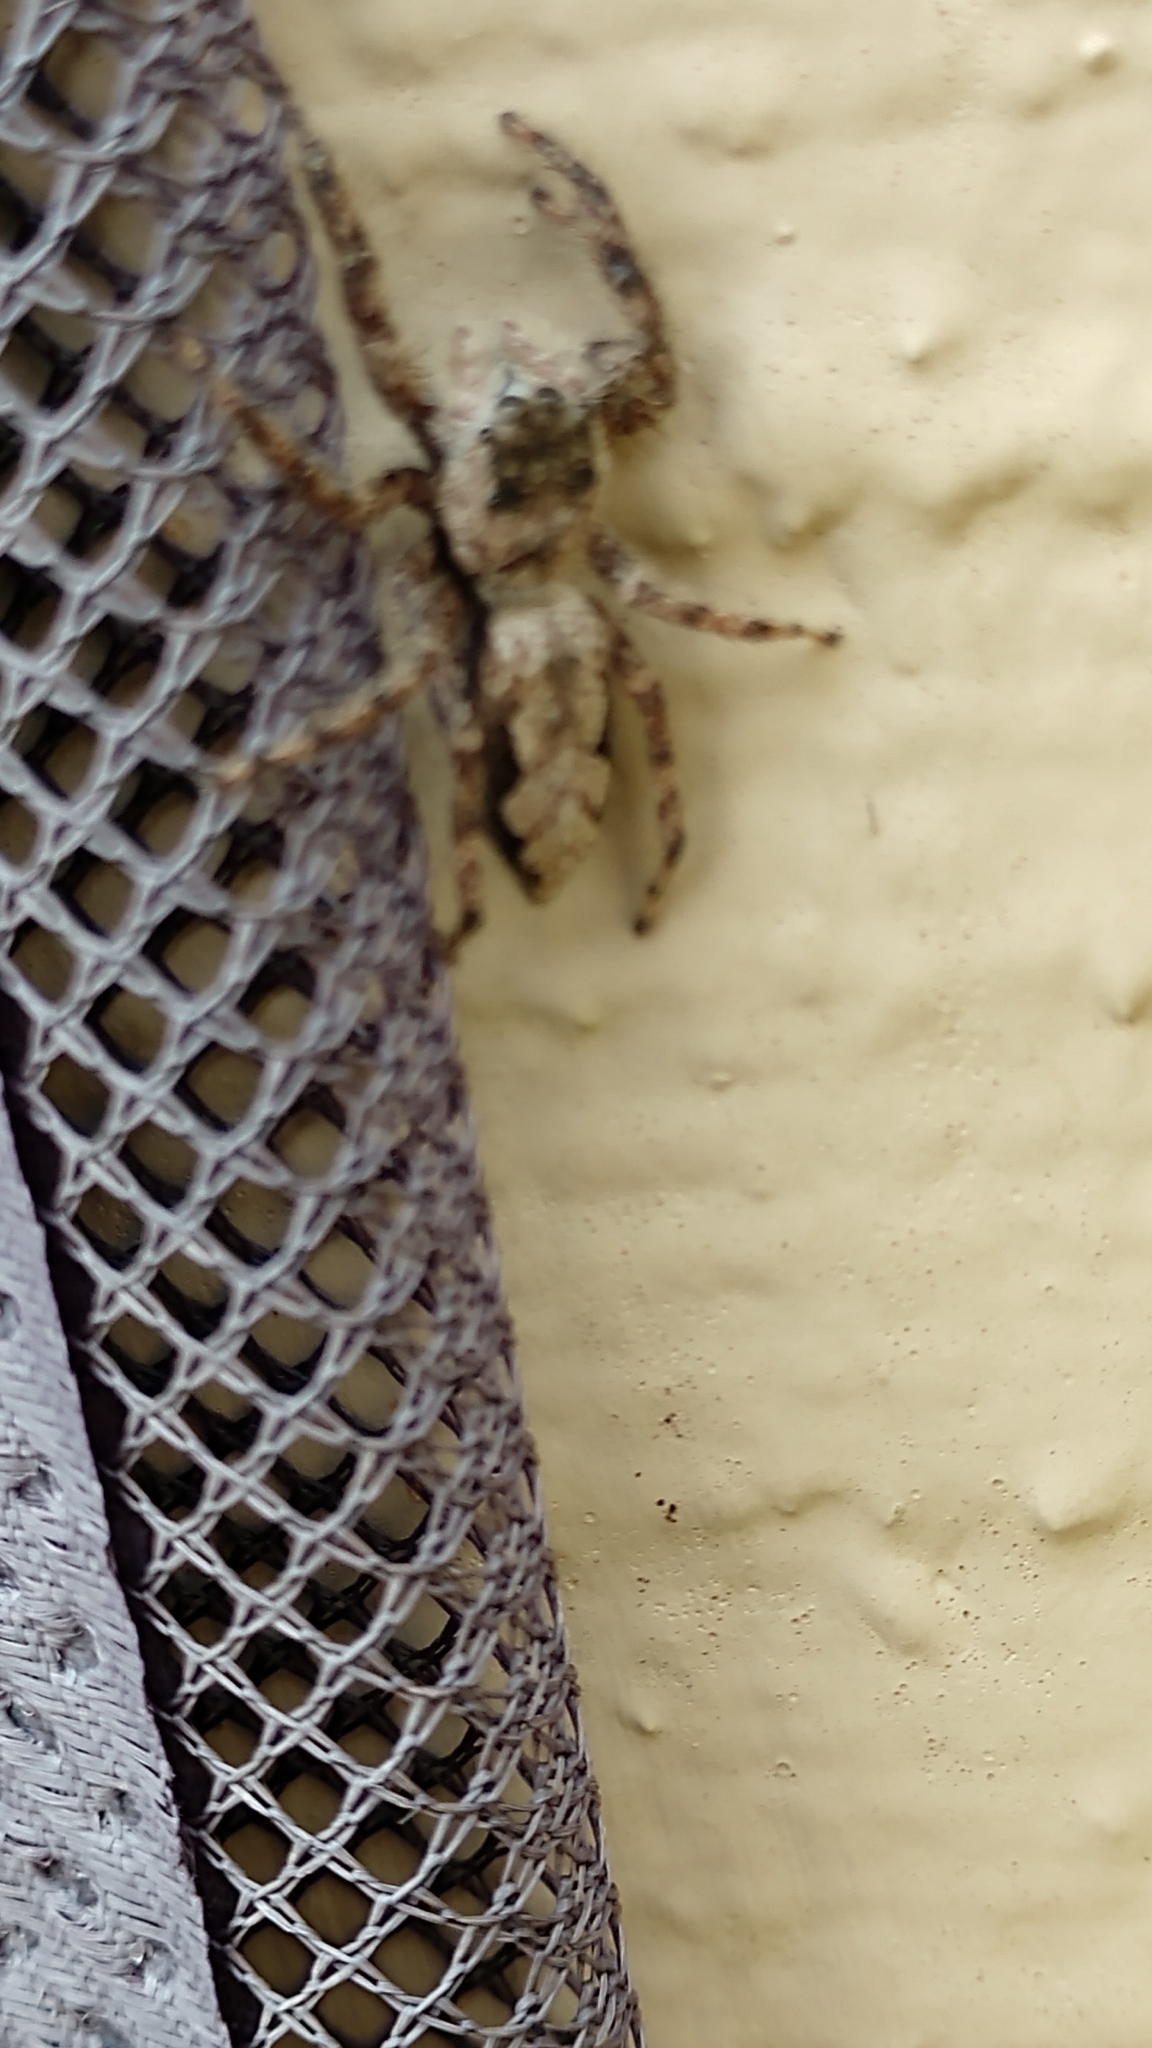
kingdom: Animalia
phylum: Arthropoda
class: Arachnida
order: Araneae
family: Salticidae
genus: Platycryptus
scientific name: Platycryptus undatus
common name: Tan jumping spider
